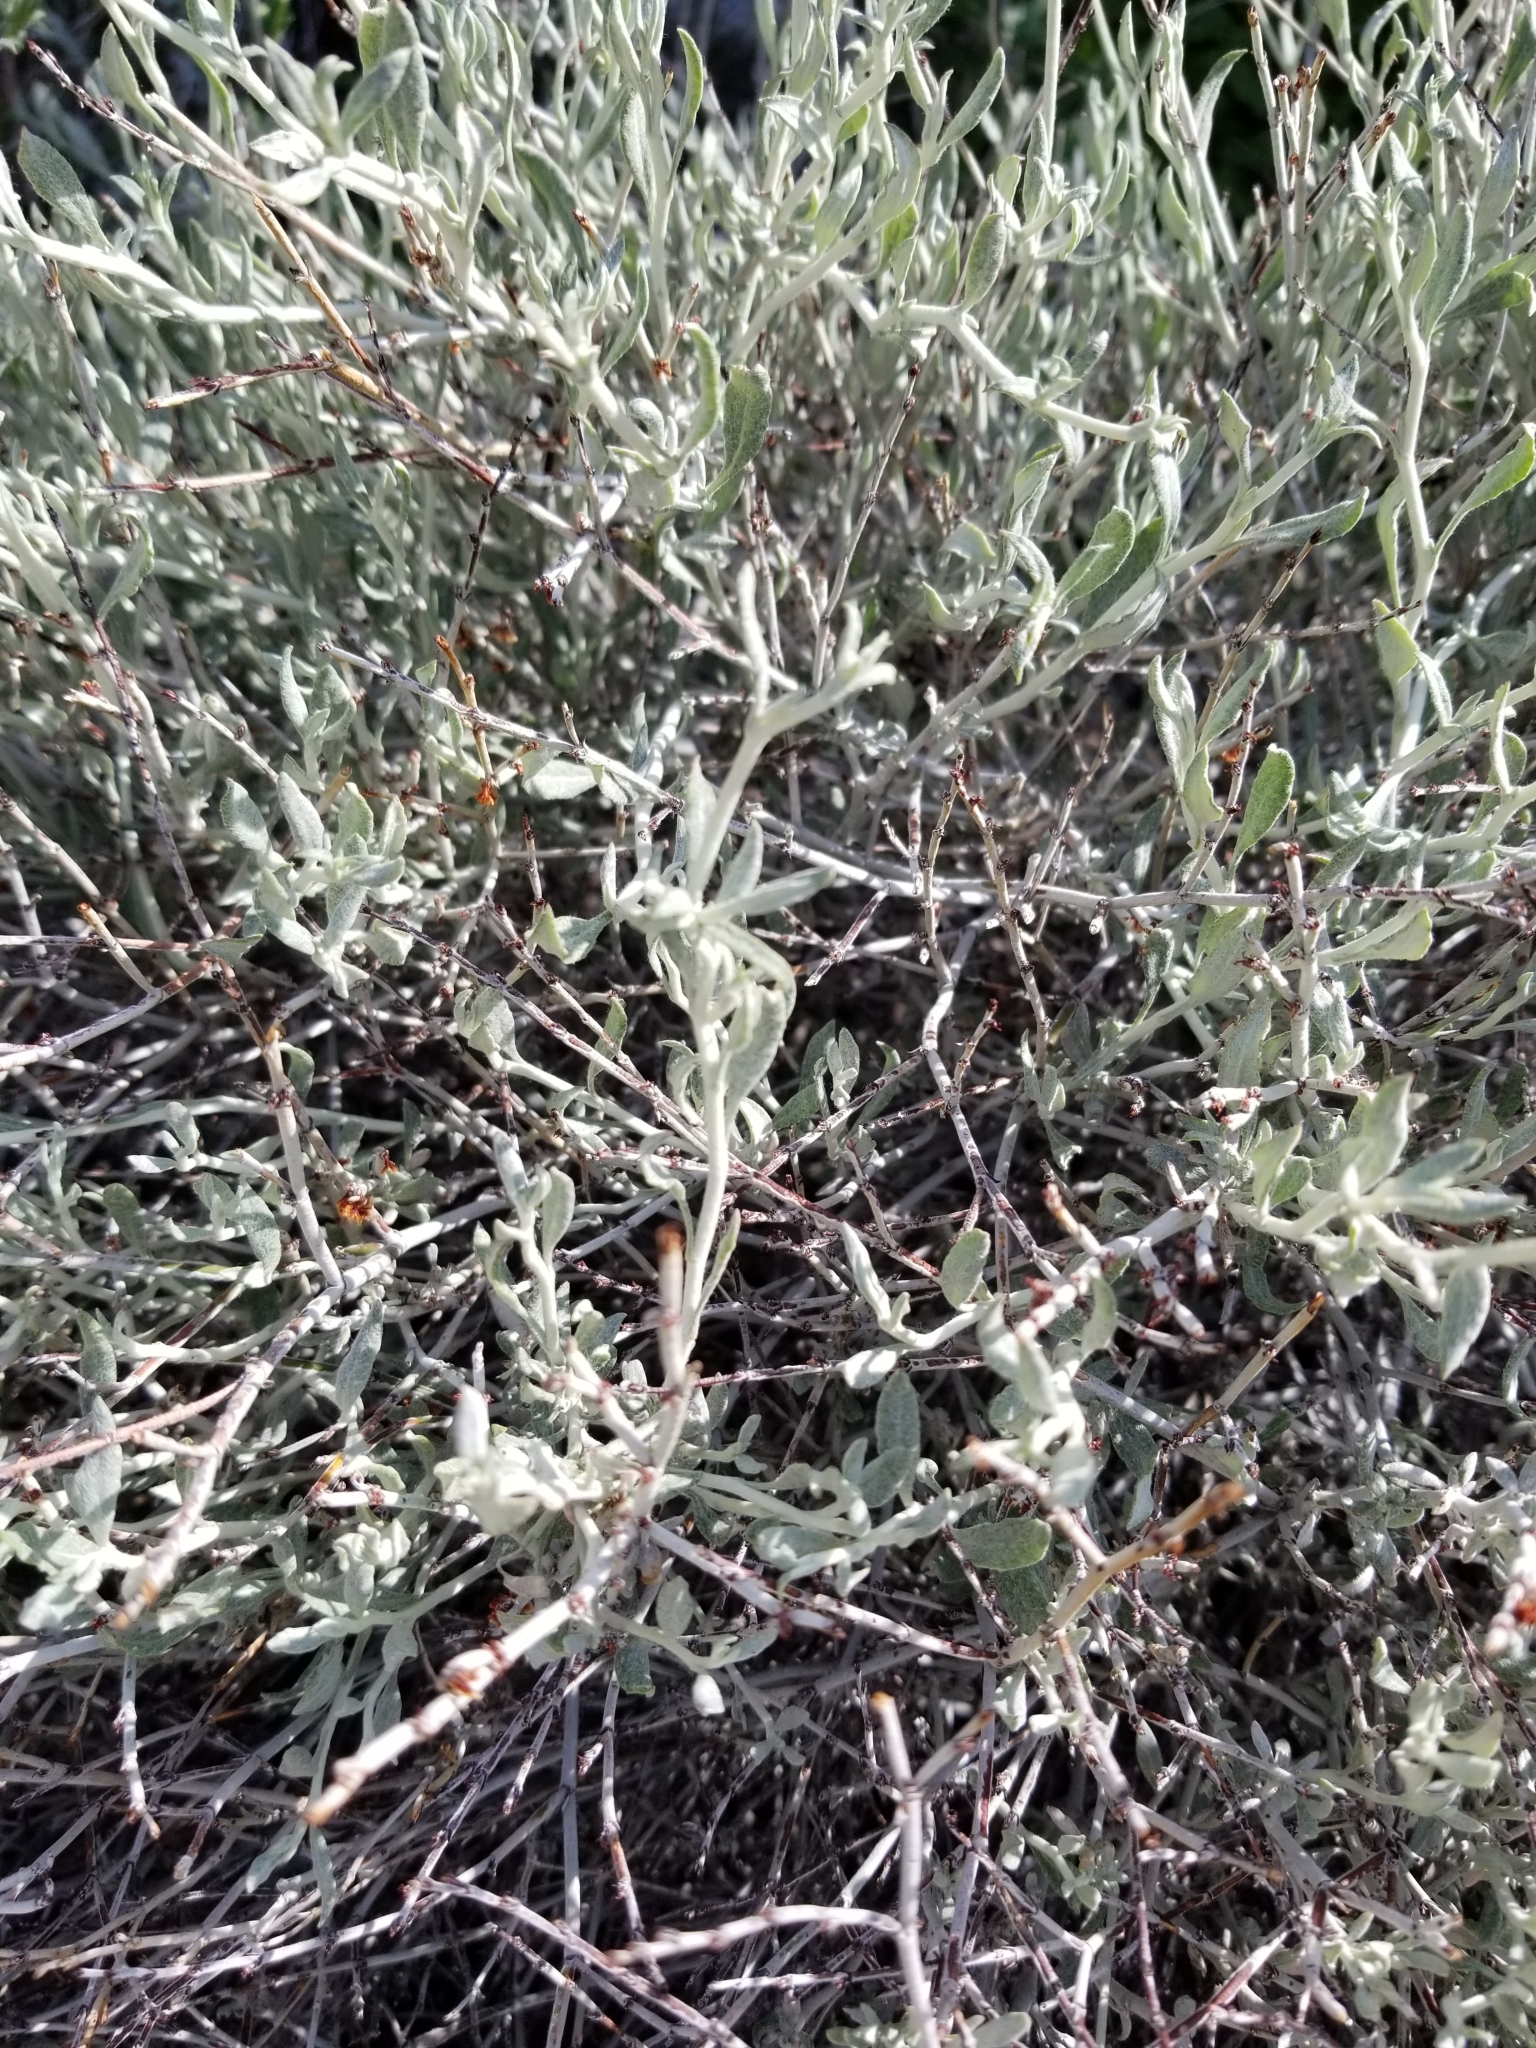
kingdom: Plantae
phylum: Tracheophyta
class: Magnoliopsida
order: Caryophyllales
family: Polygonaceae
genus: Eriogonum
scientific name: Eriogonum wrightii
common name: Bastard-sage
